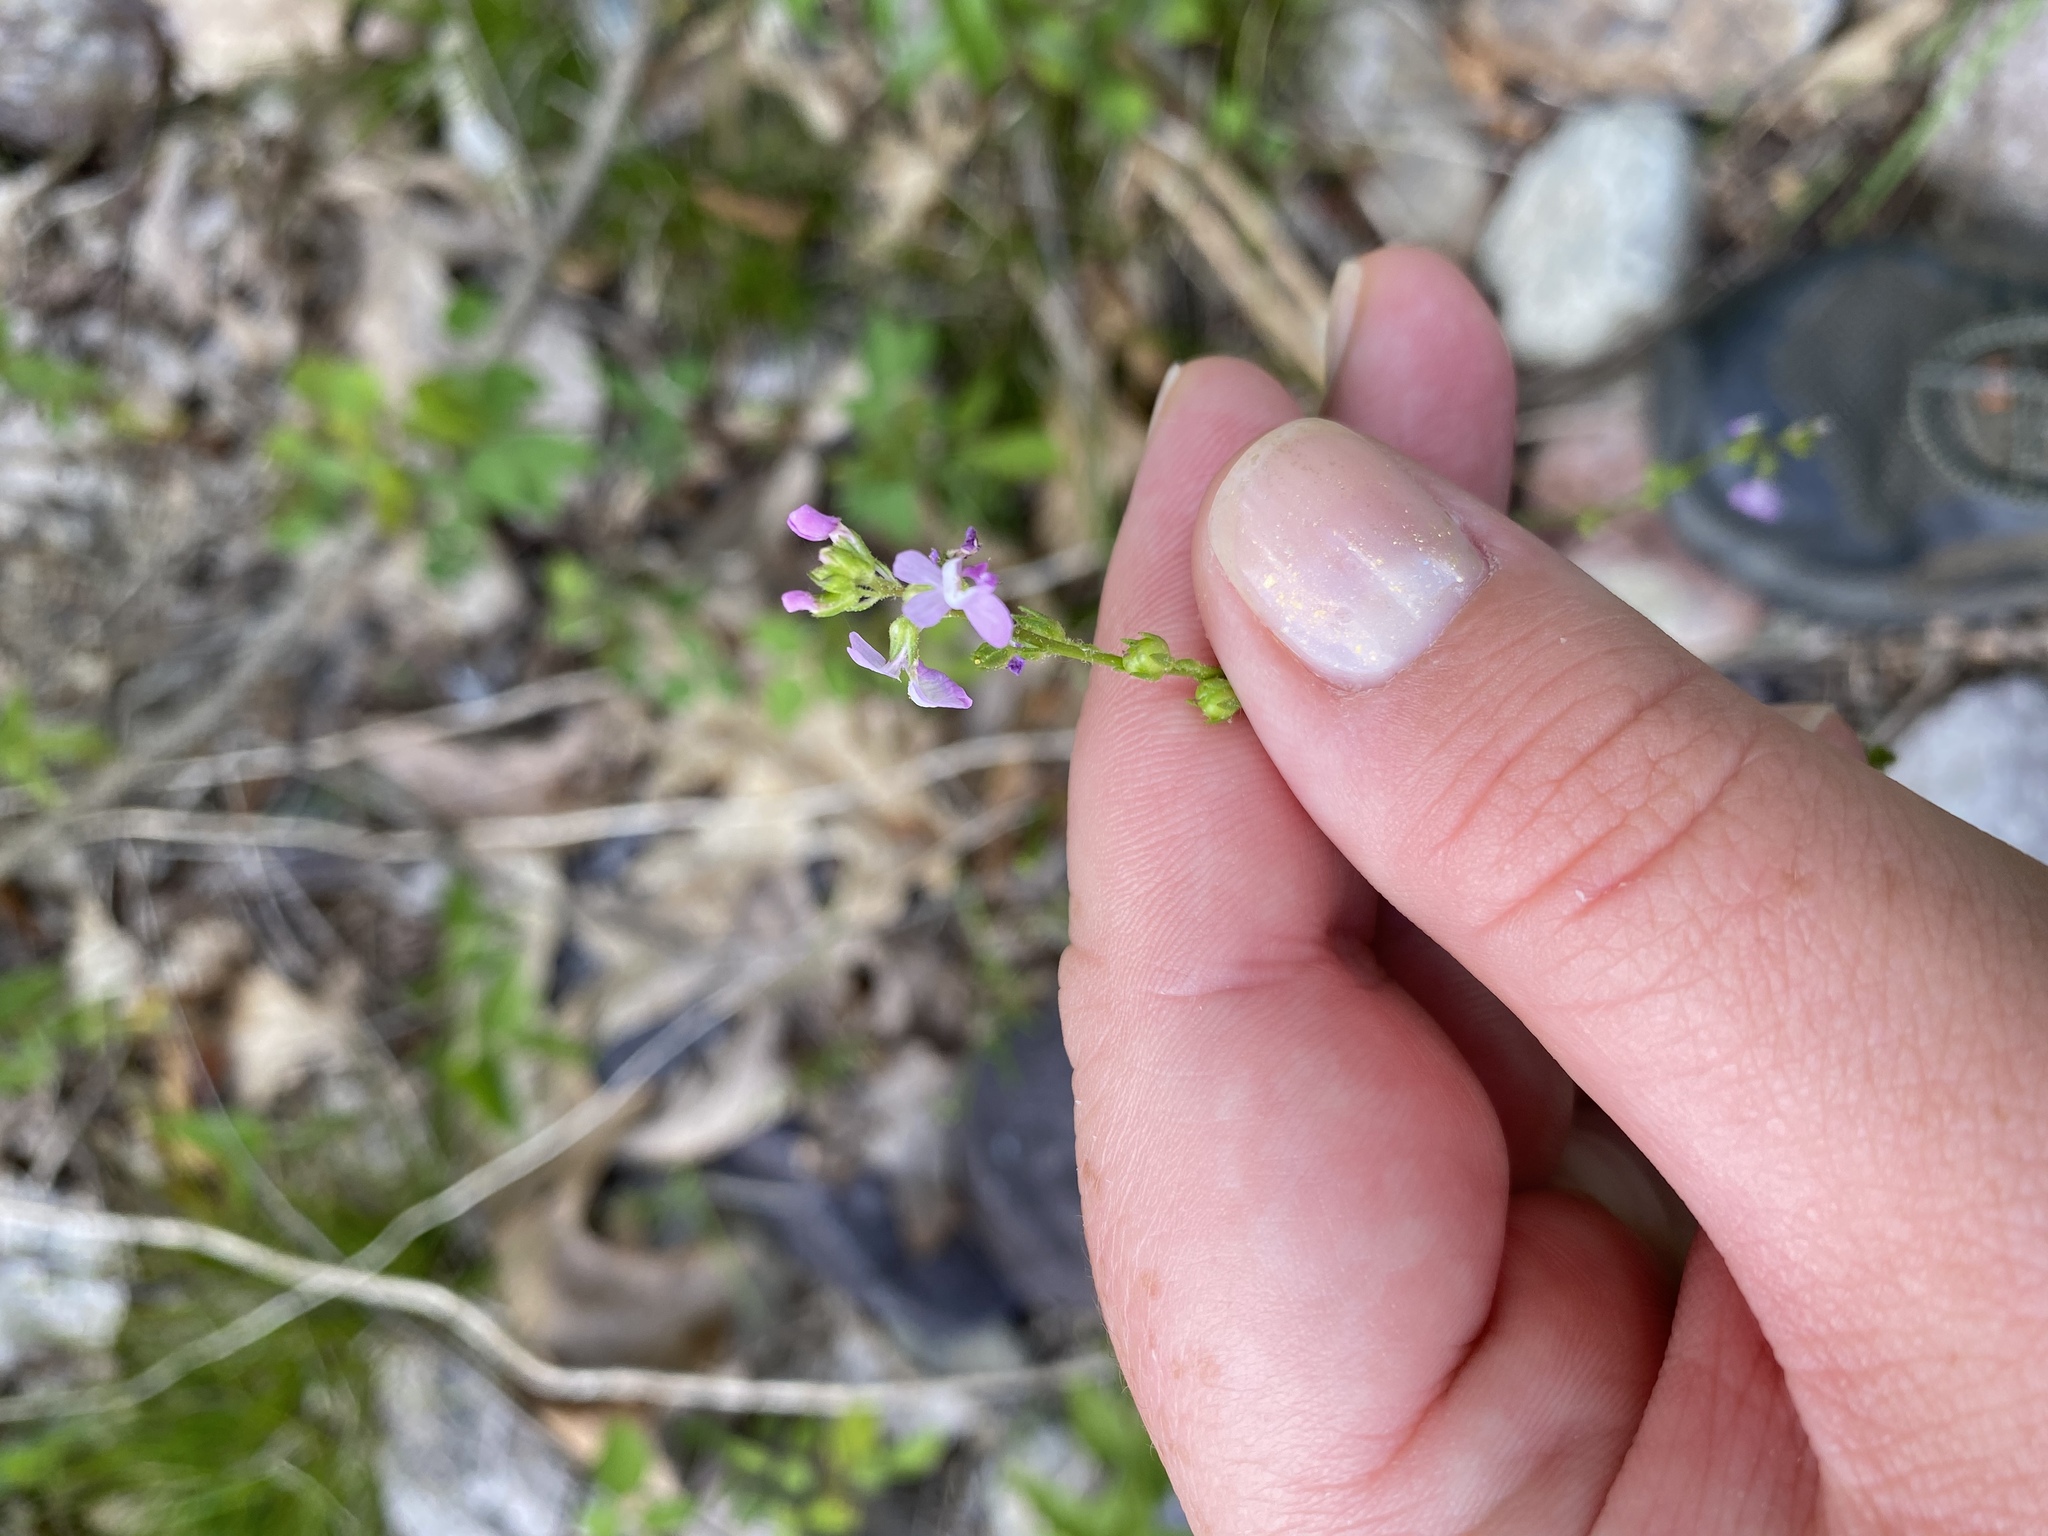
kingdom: Plantae
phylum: Tracheophyta
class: Magnoliopsida
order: Lamiales
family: Plantaginaceae
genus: Nuttallanthus
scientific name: Nuttallanthus canadensis
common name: Blue toadflax
